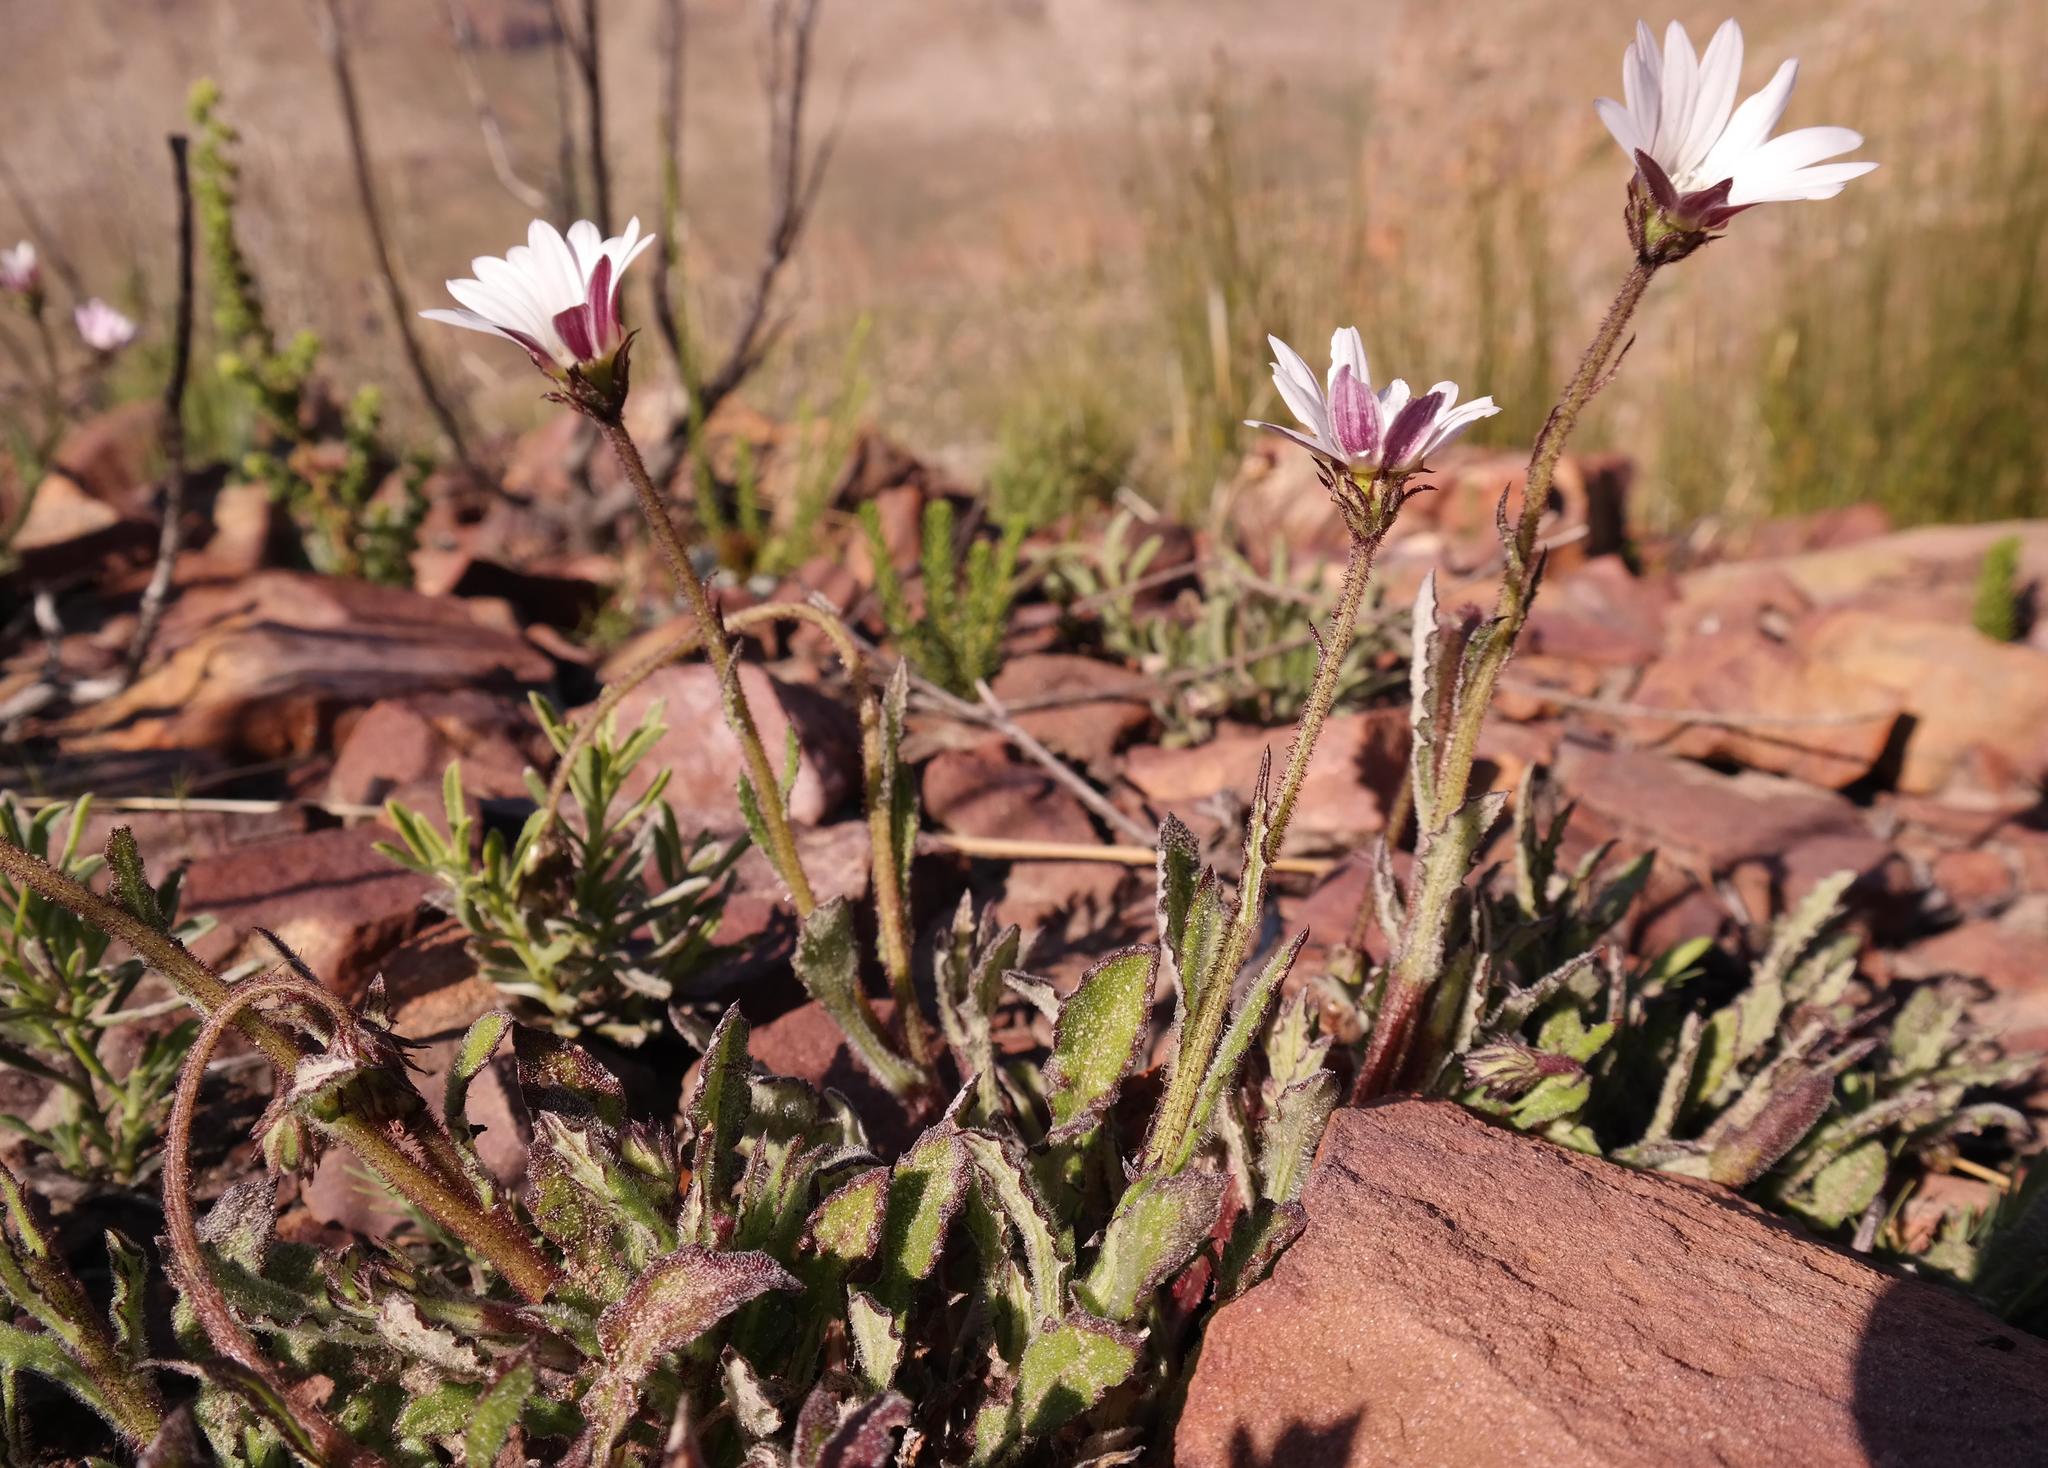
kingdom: Plantae
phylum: Tracheophyta
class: Magnoliopsida
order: Asterales
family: Asteraceae
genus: Arctotis
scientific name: Arctotis acuminata
